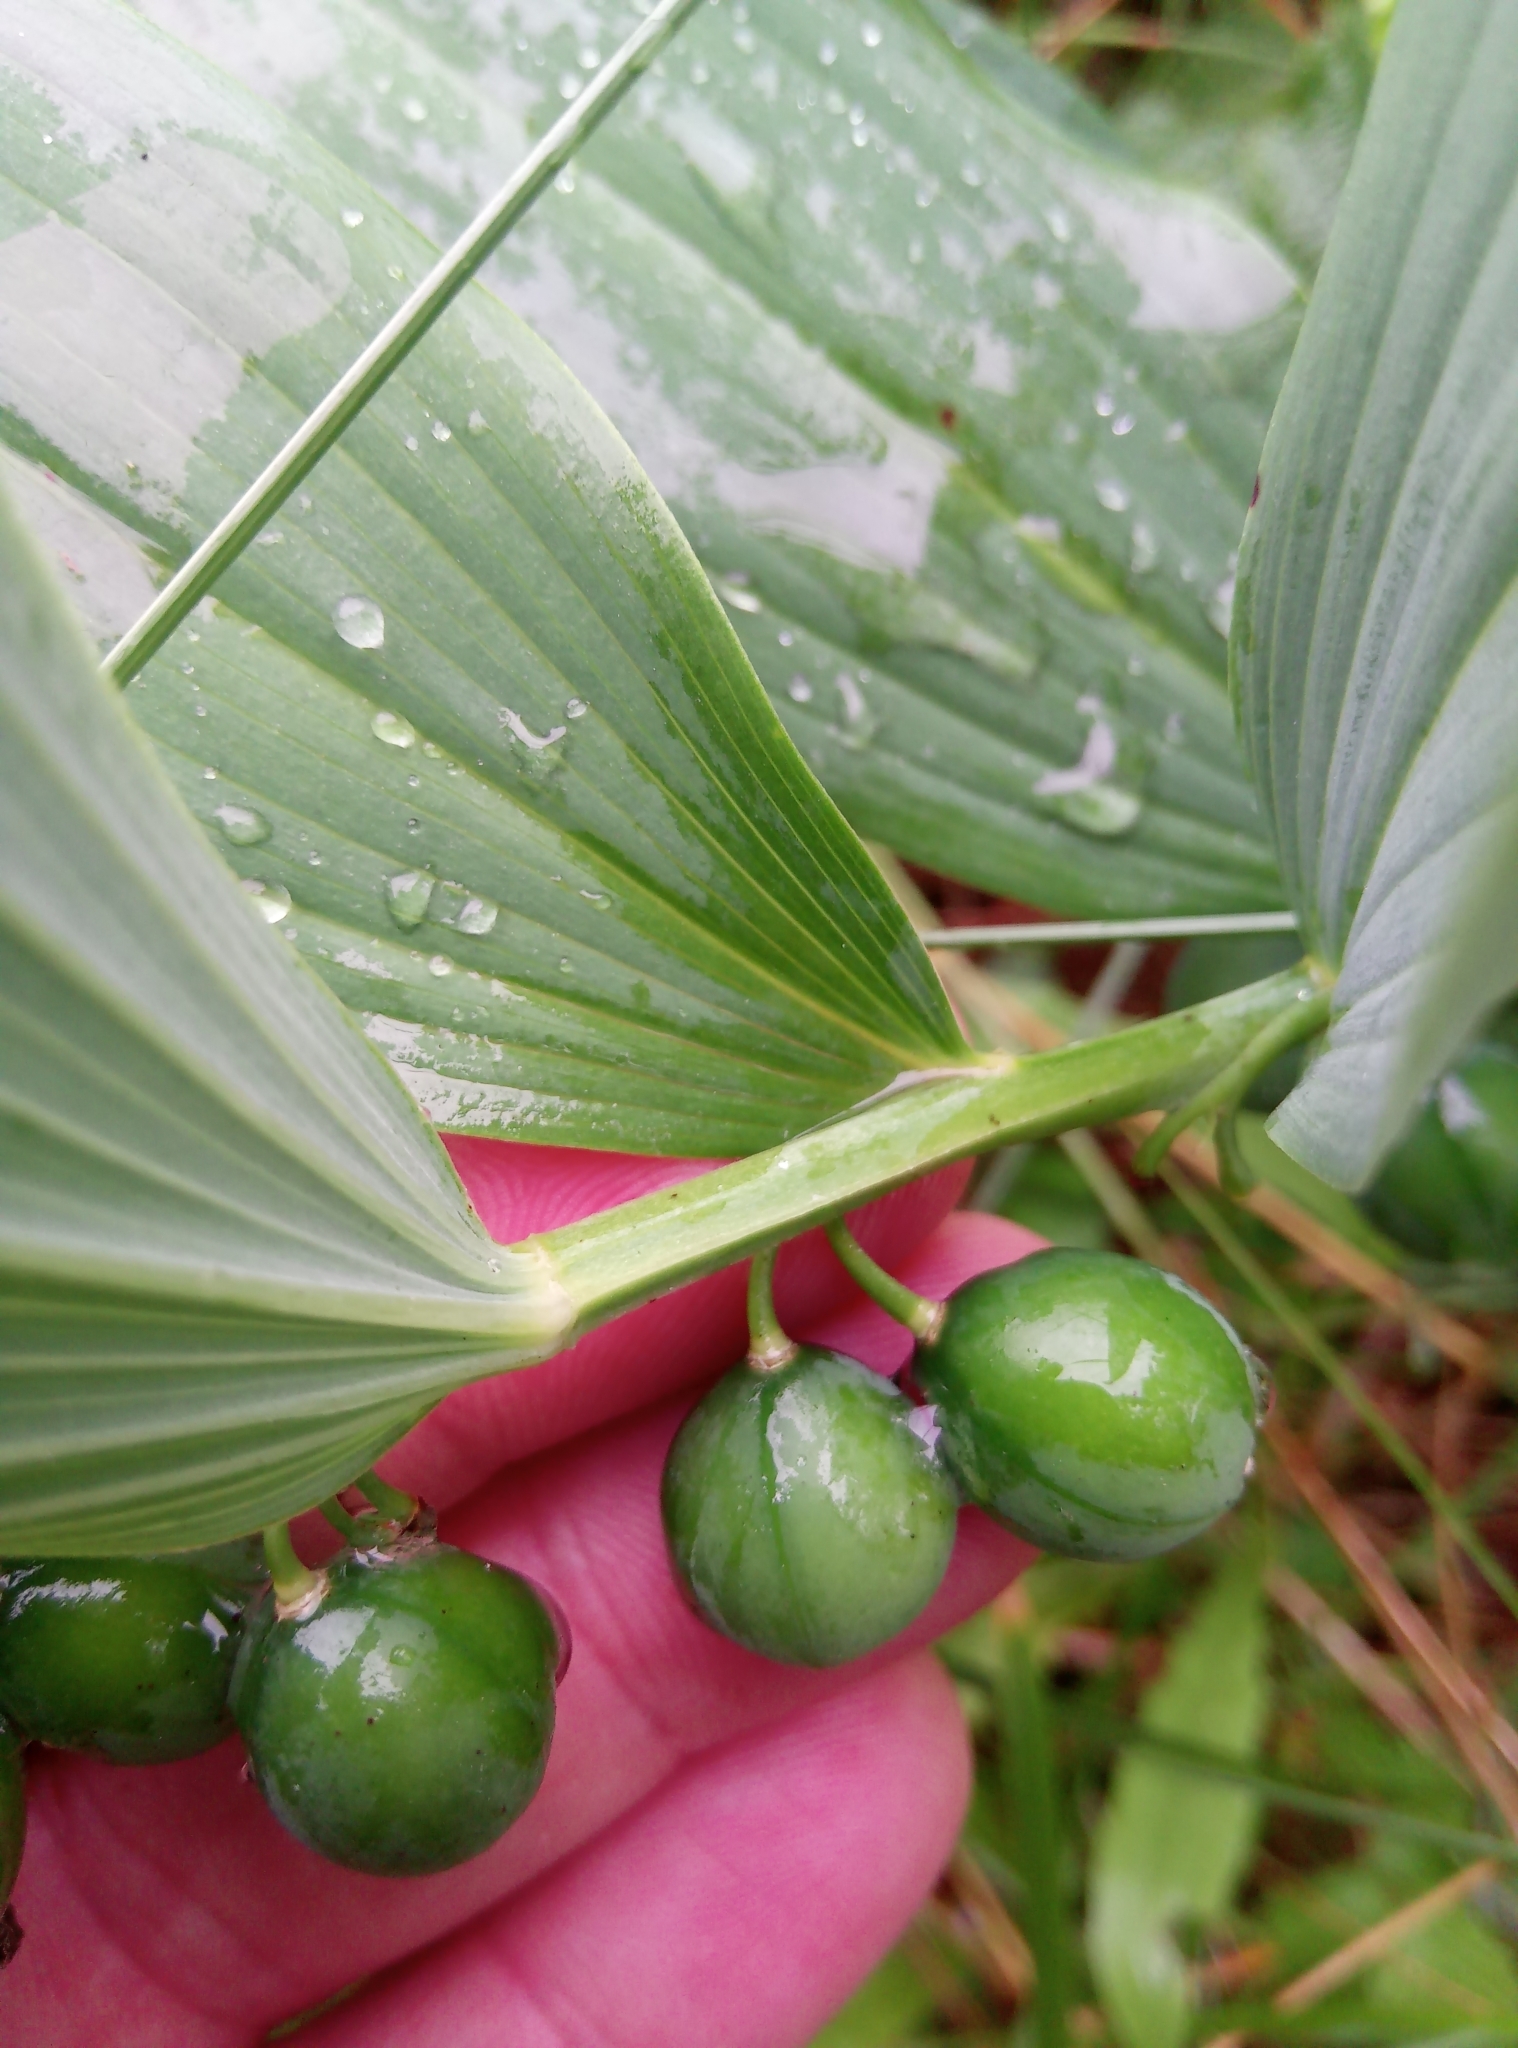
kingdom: Plantae
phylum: Tracheophyta
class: Liliopsida
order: Asparagales
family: Asparagaceae
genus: Polygonatum
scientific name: Polygonatum odoratum
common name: Angular solomon's-seal
